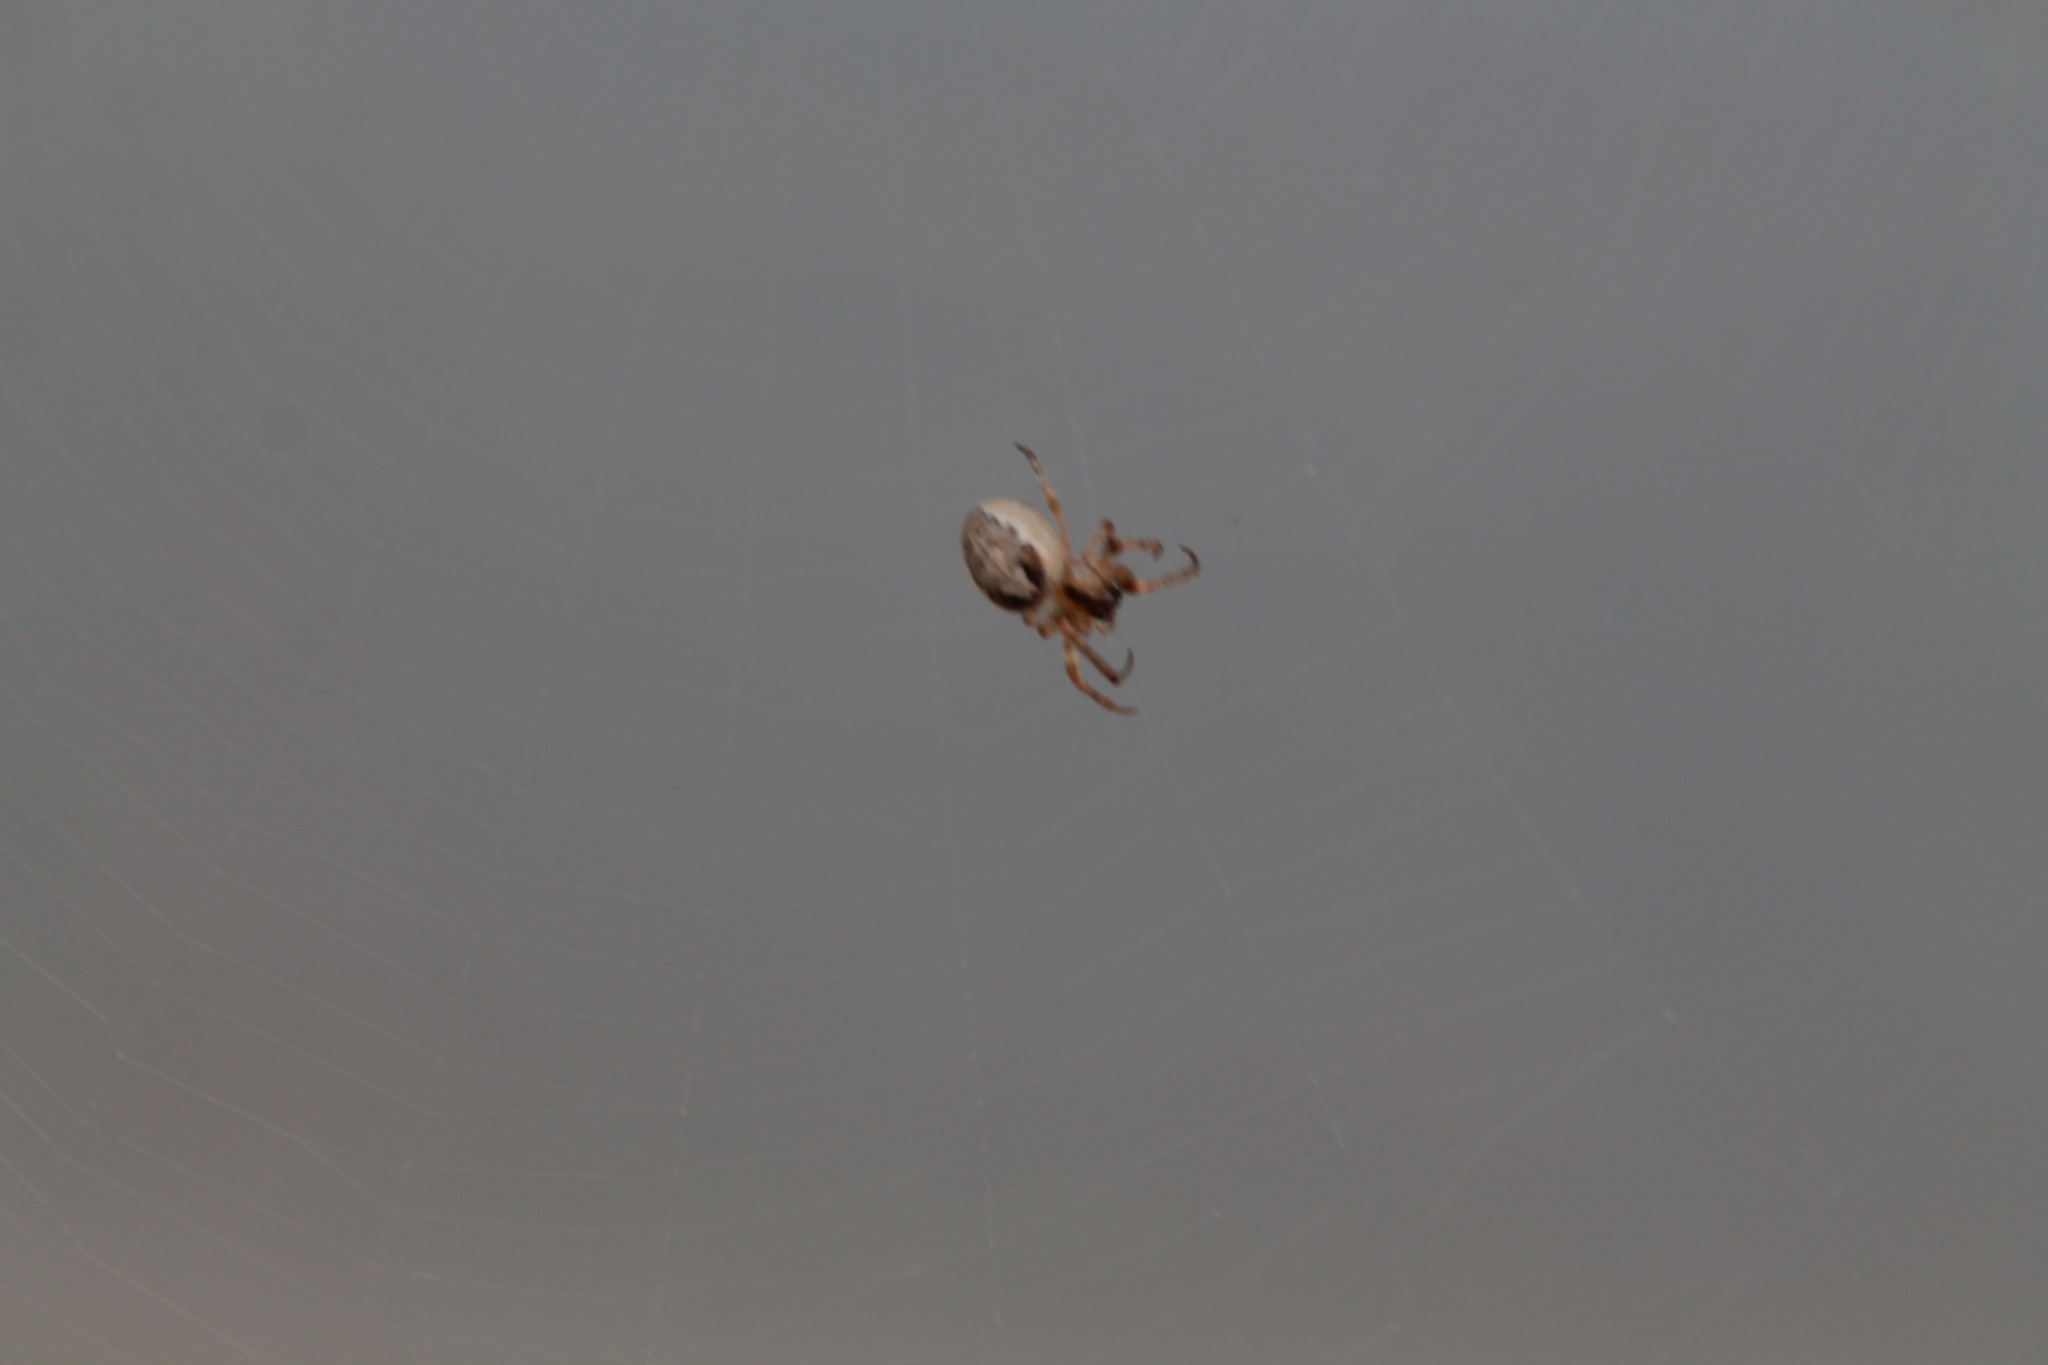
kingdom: Animalia
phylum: Arthropoda
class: Arachnida
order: Araneae
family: Araneidae
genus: Zygiella
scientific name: Zygiella x-notata
